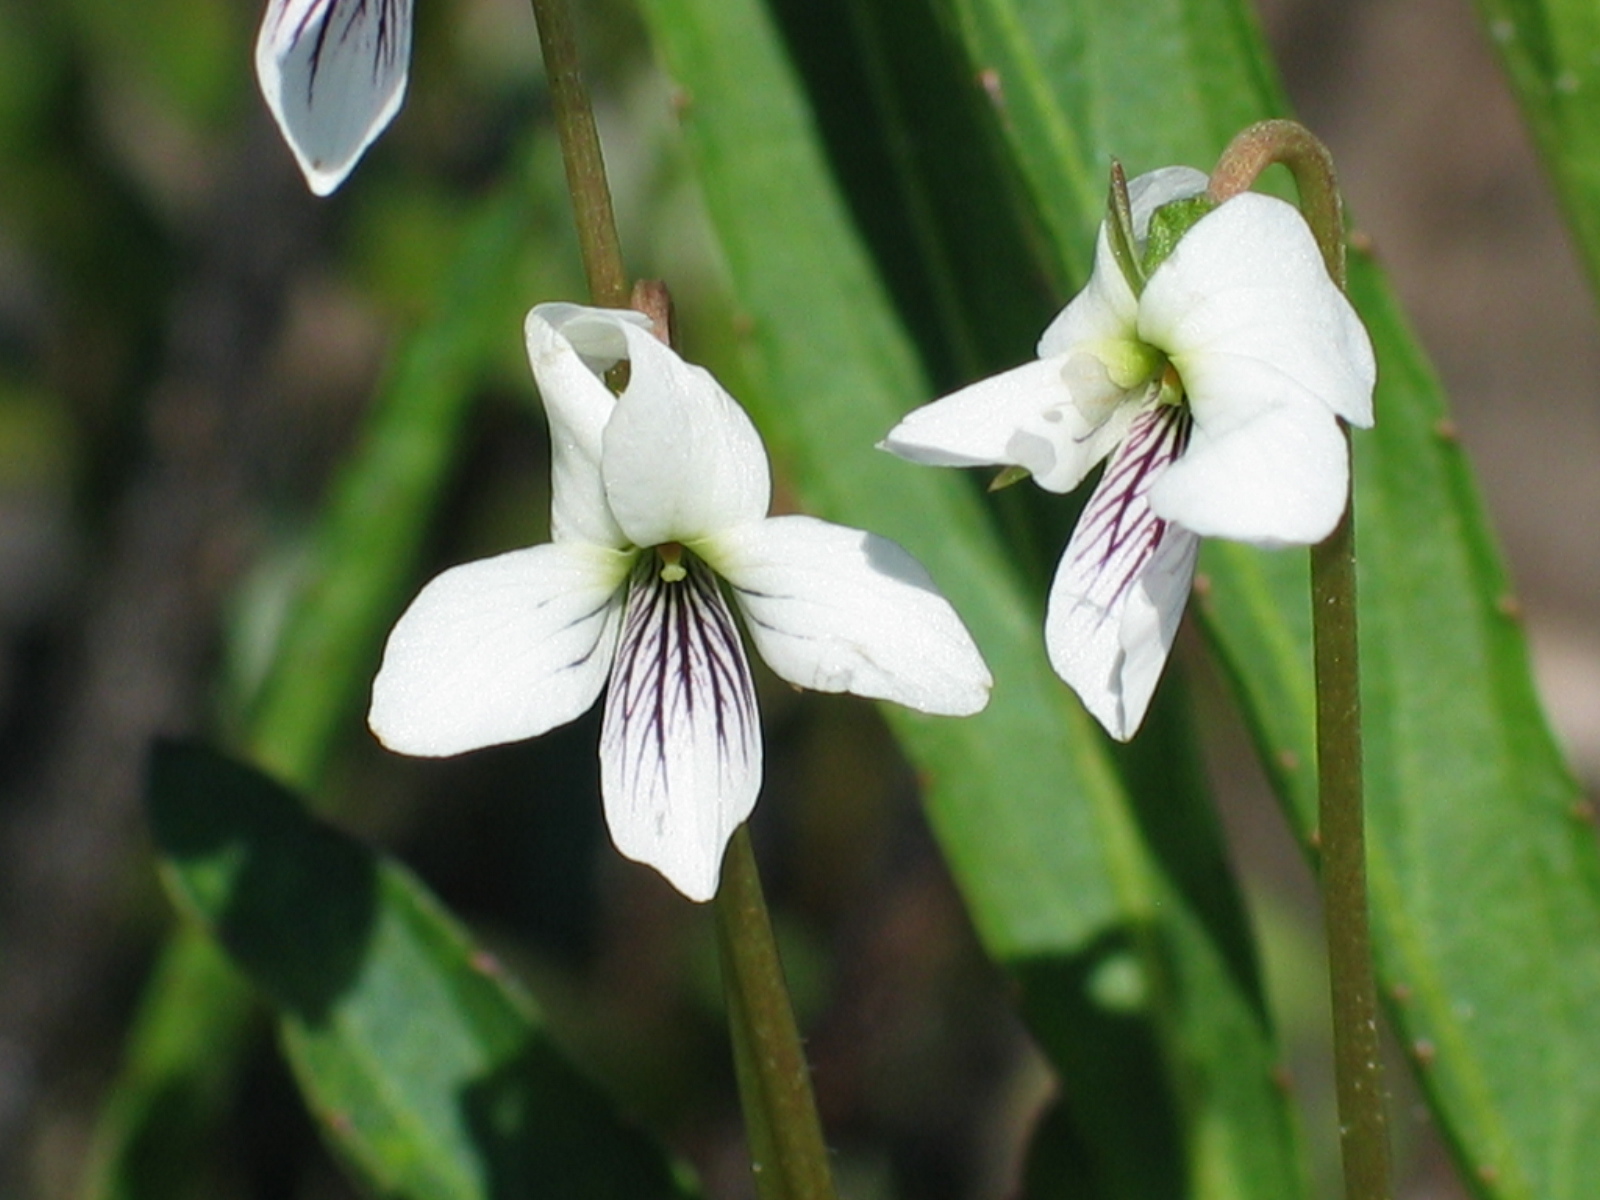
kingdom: Plantae
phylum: Tracheophyta
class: Magnoliopsida
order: Malpighiales
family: Violaceae
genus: Viola
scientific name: Viola lanceolata
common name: Bog white violet
